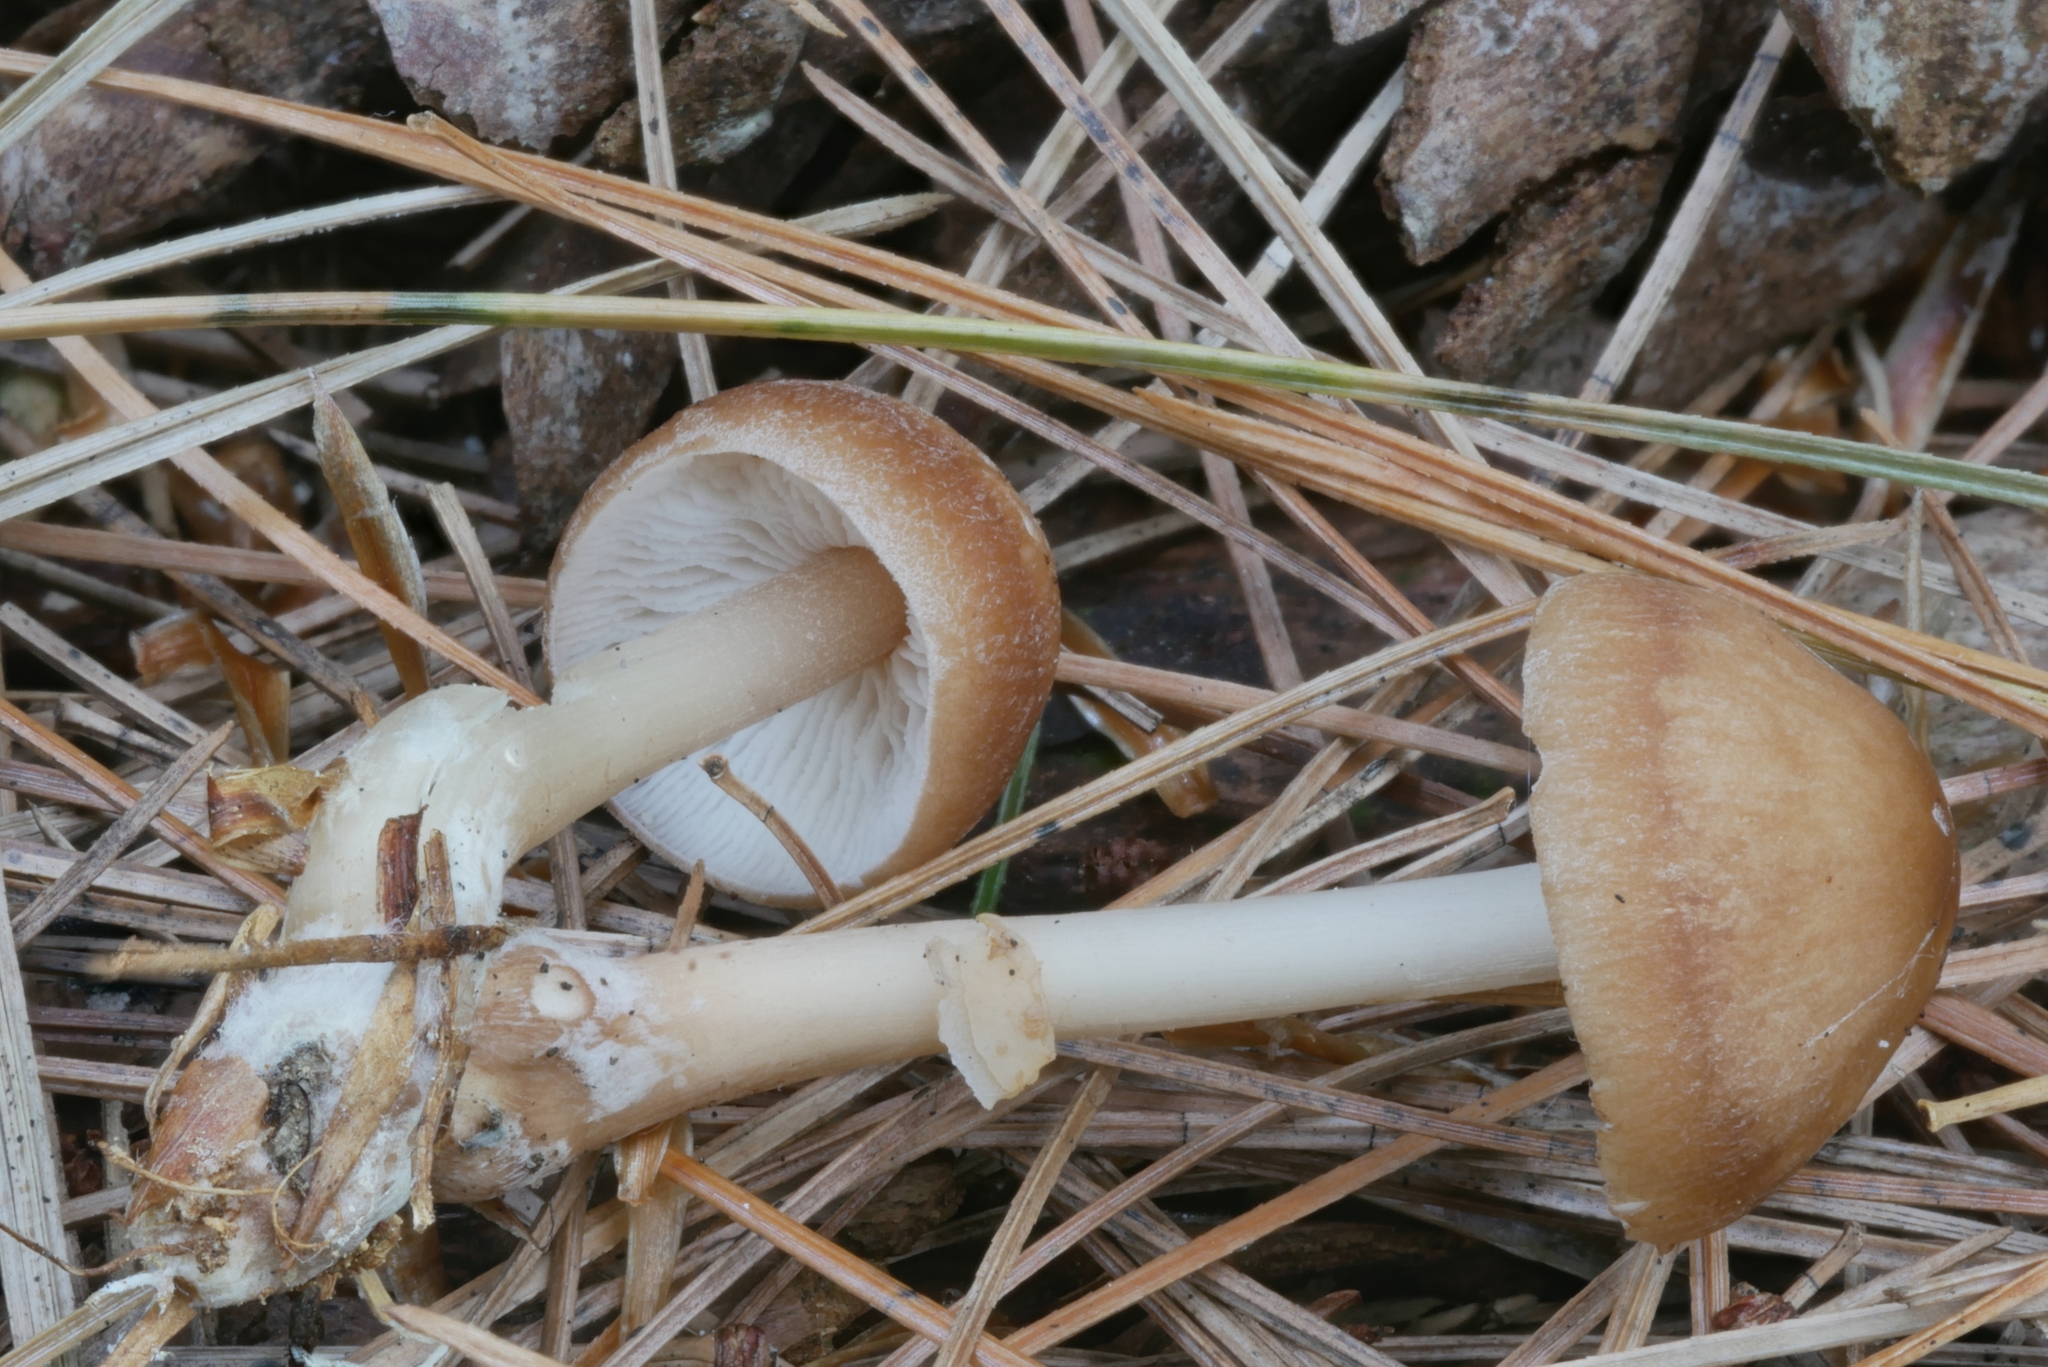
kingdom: Fungi
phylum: Basidiomycota
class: Agaricomycetes
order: Agaricales
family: Omphalotaceae
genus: Rhodocollybia
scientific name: Rhodocollybia butyracea
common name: Butter cap
